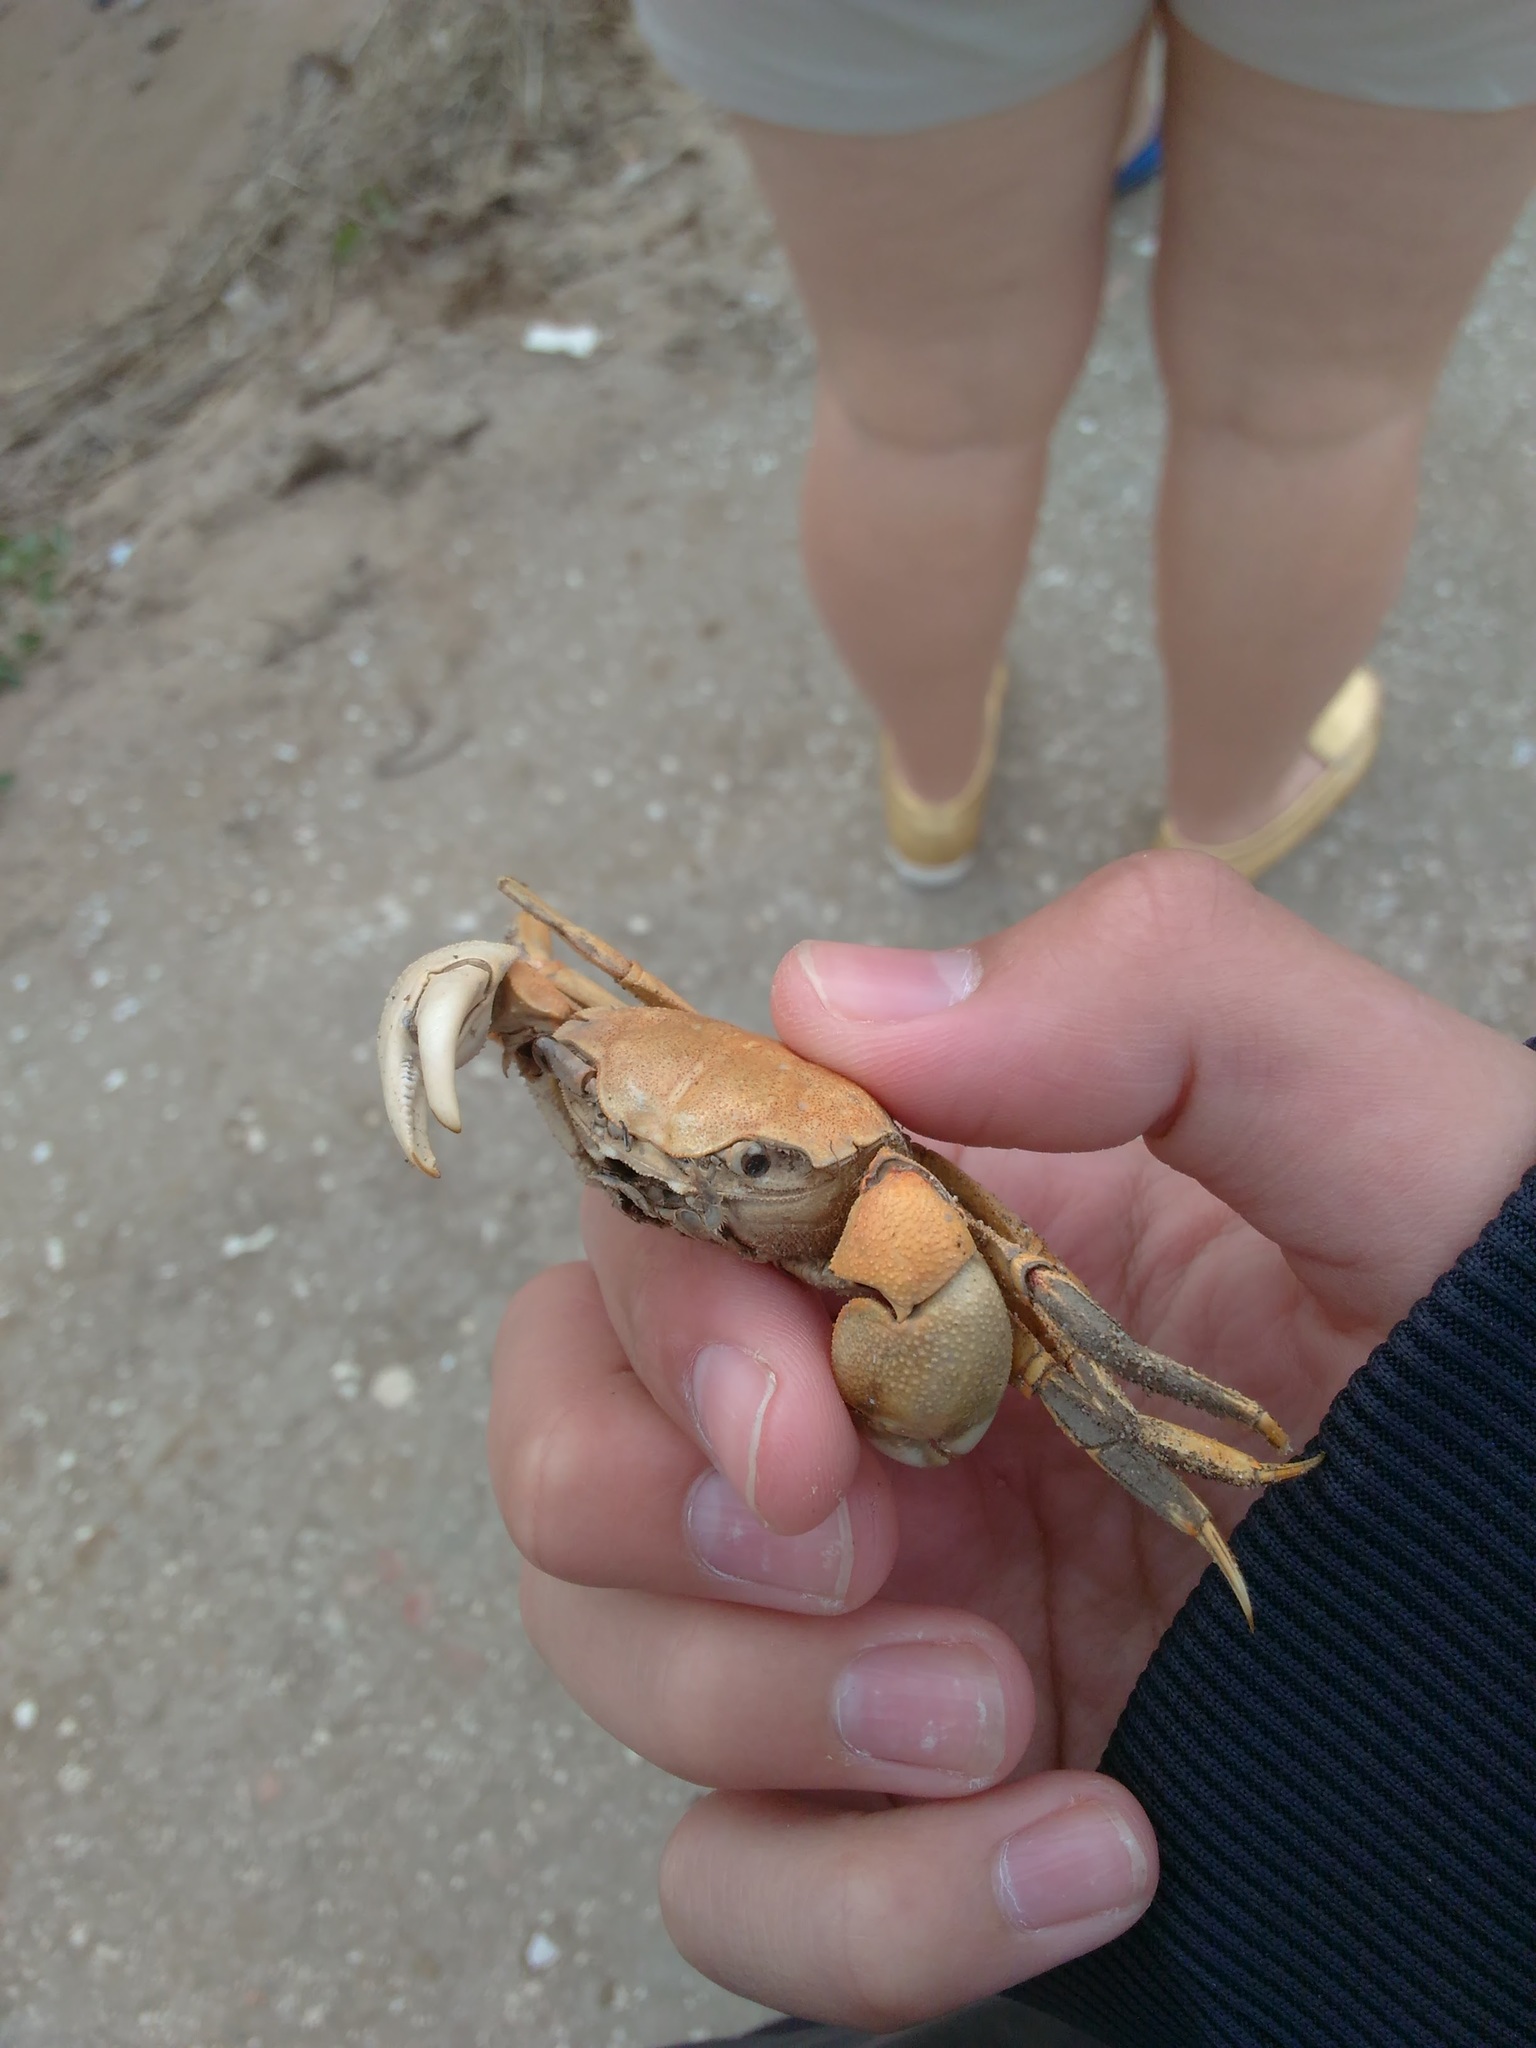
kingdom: Animalia
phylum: Arthropoda
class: Malacostraca
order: Decapoda
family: Varunidae
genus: Neohelice
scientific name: Neohelice granulata
